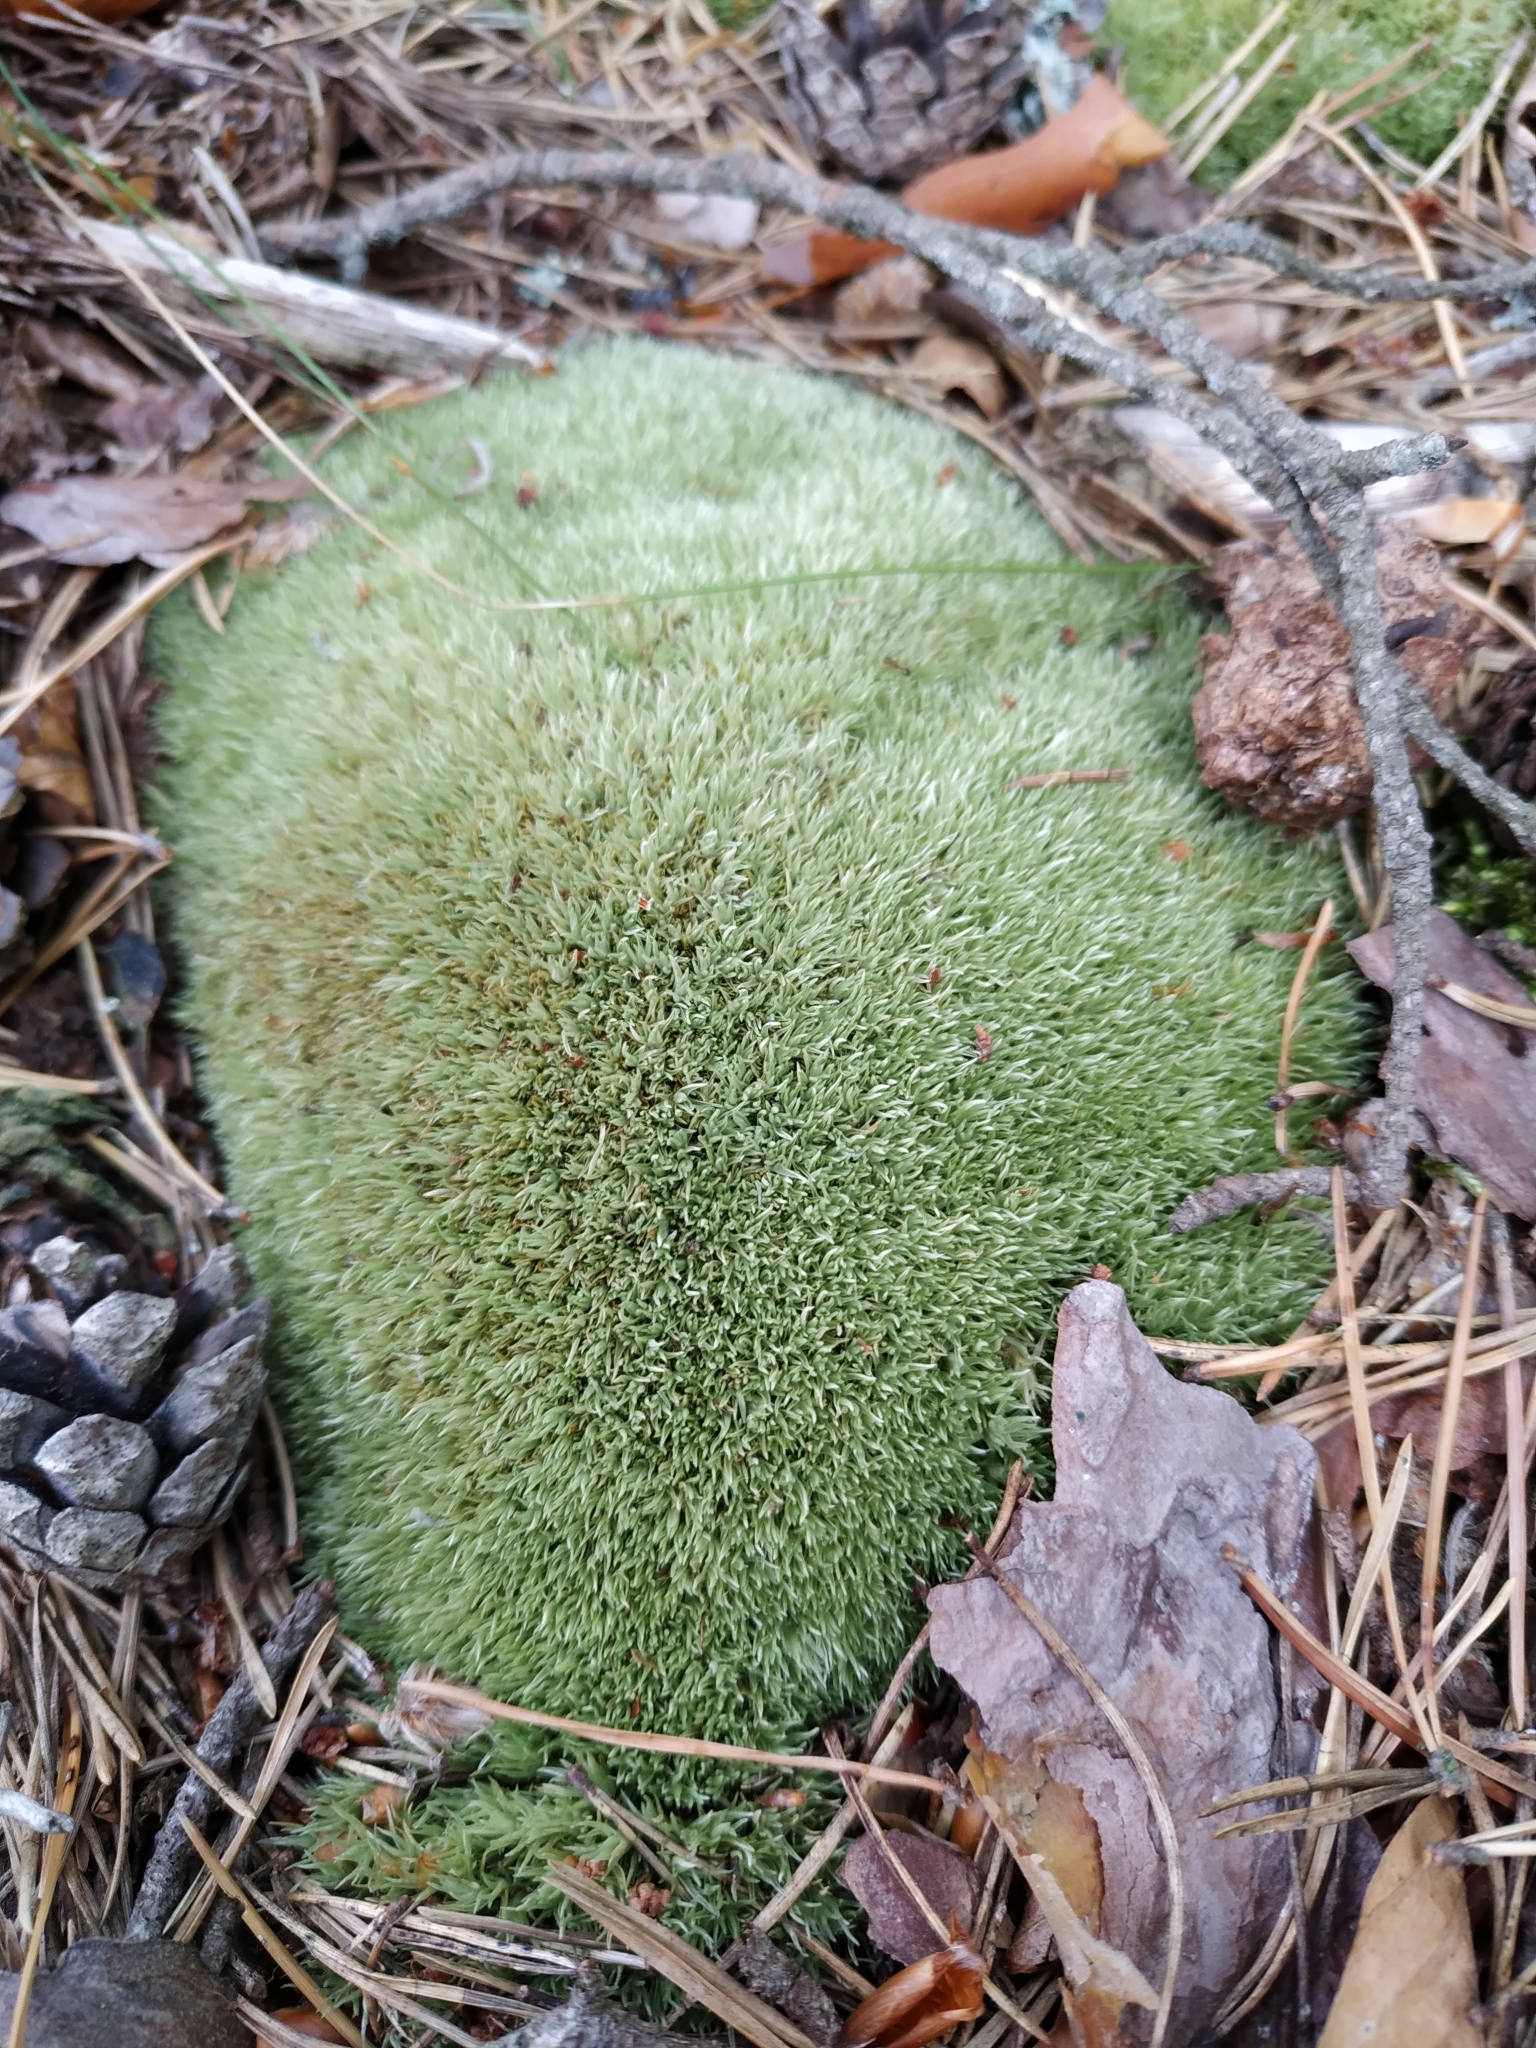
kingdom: Plantae
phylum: Bryophyta
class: Bryopsida
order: Dicranales
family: Leucobryaceae
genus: Leucobryum
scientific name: Leucobryum glaucum
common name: Large white-moss
